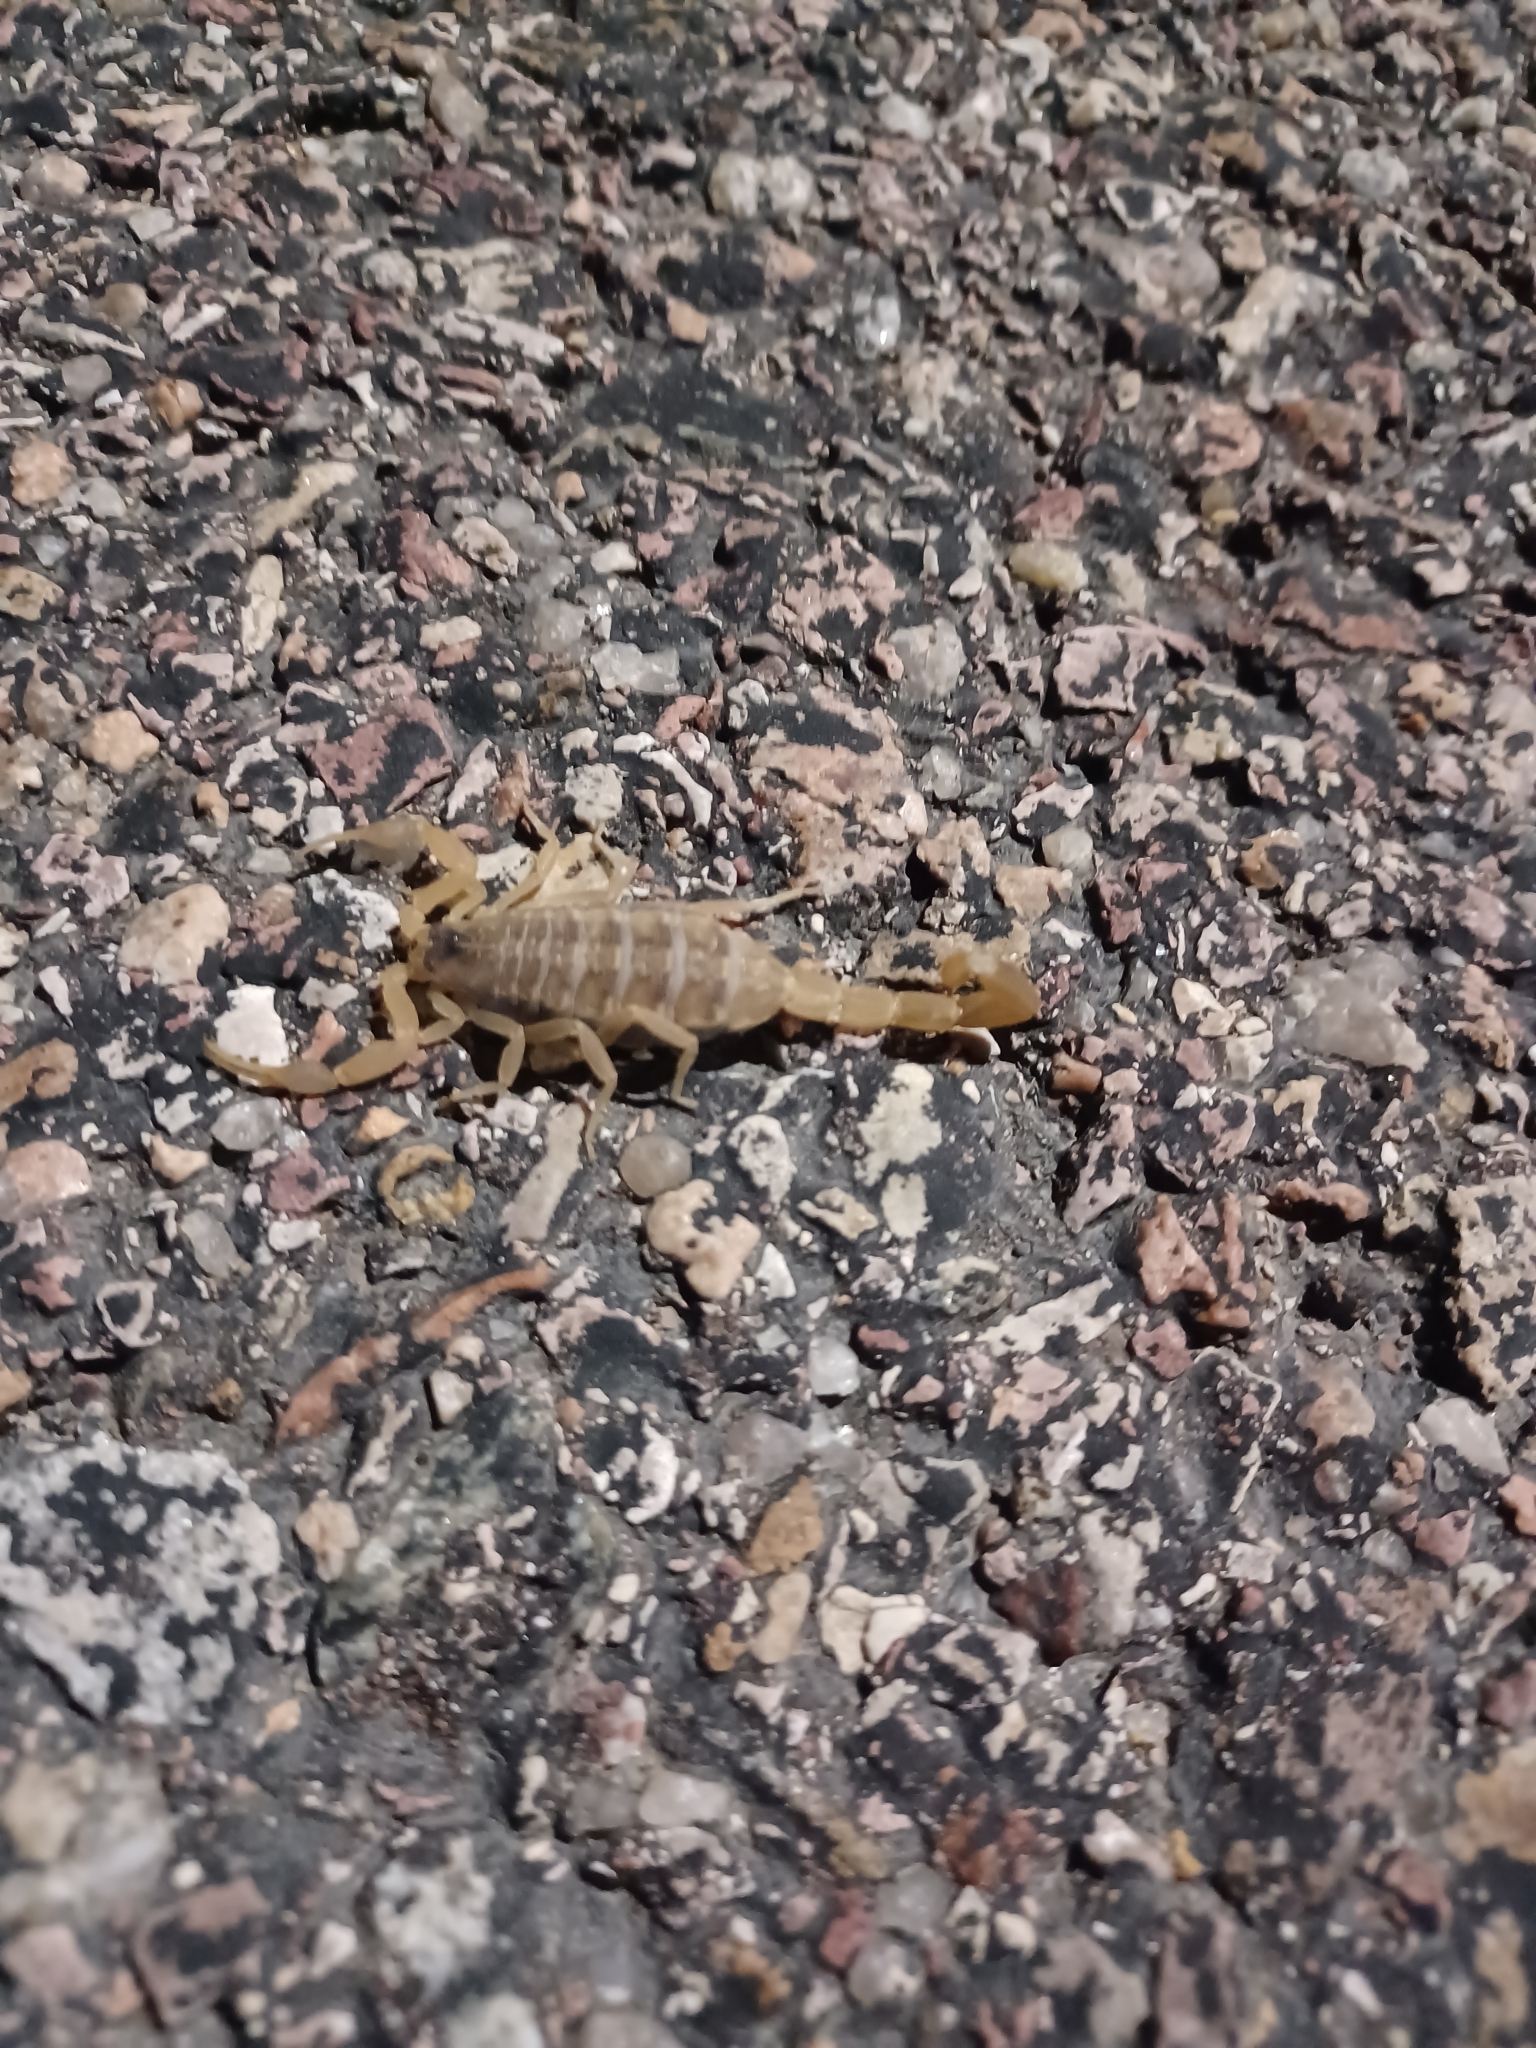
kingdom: Animalia
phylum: Arthropoda
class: Arachnida
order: Scorpiones
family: Buthidae
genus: Centruroides
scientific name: Centruroides vittatus
